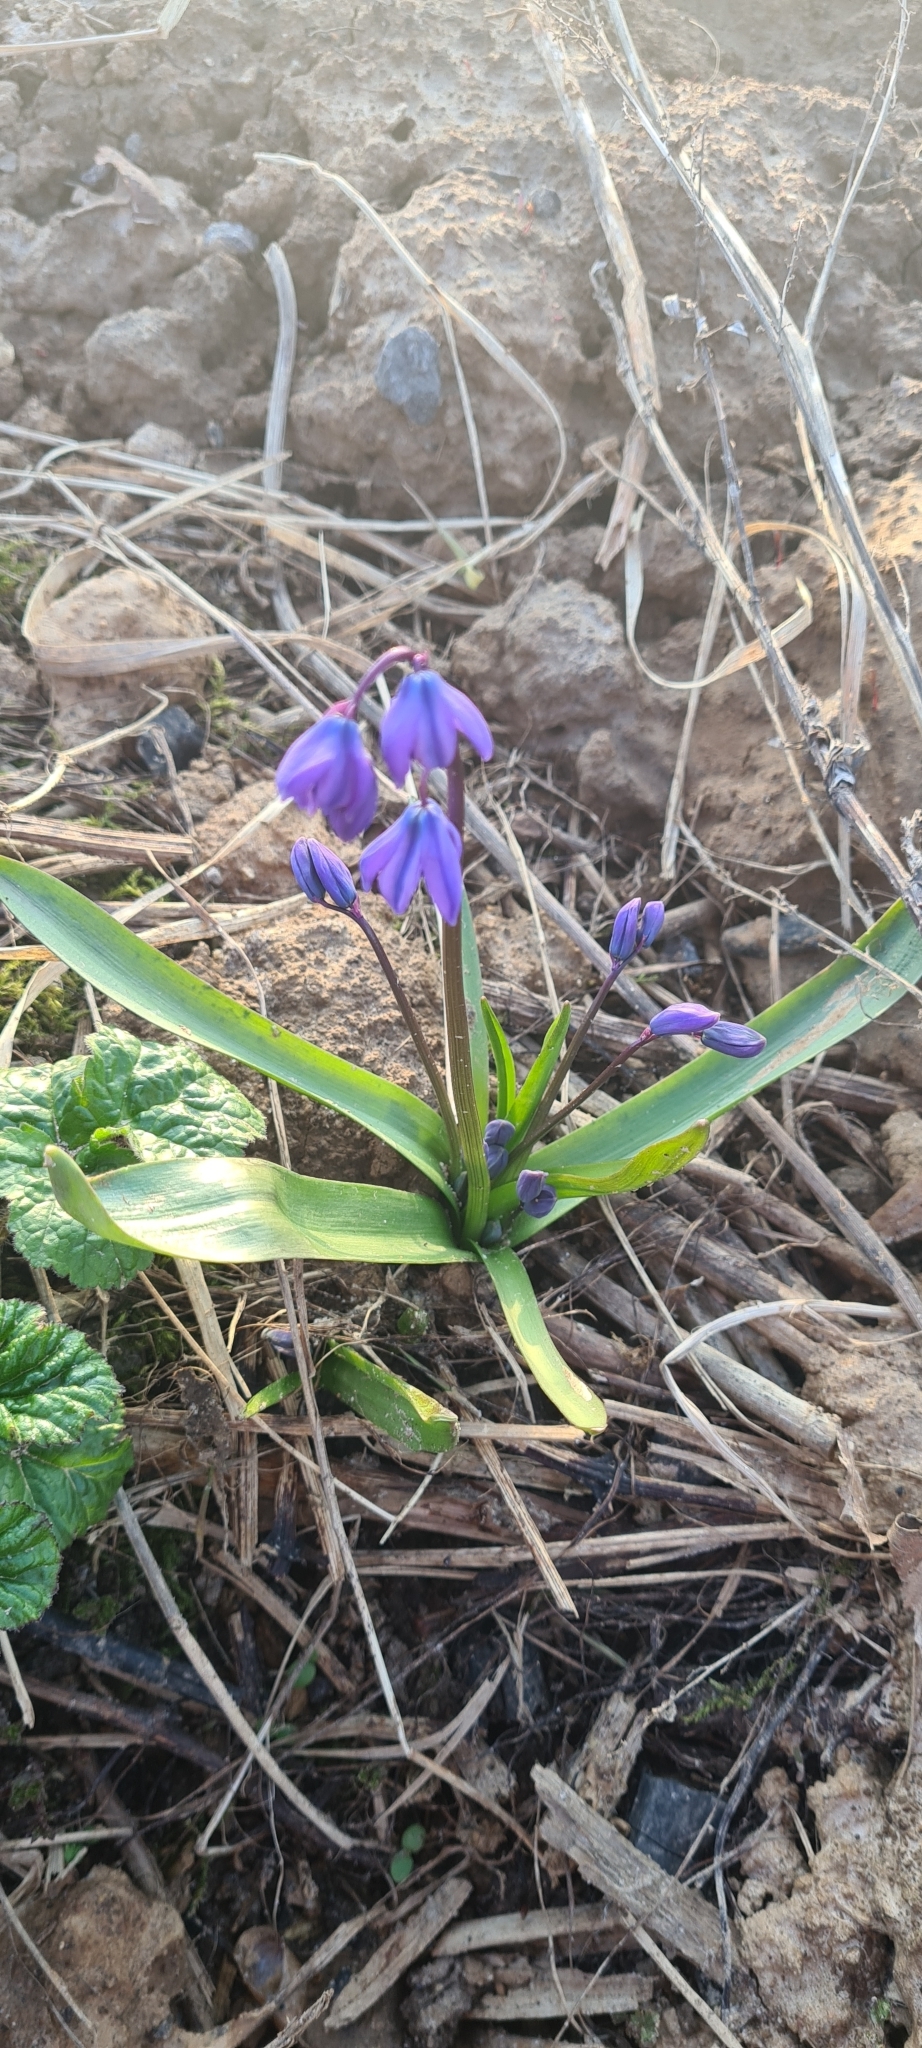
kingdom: Plantae
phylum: Tracheophyta
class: Liliopsida
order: Asparagales
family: Asparagaceae
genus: Scilla
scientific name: Scilla siberica
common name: Siberian squill
